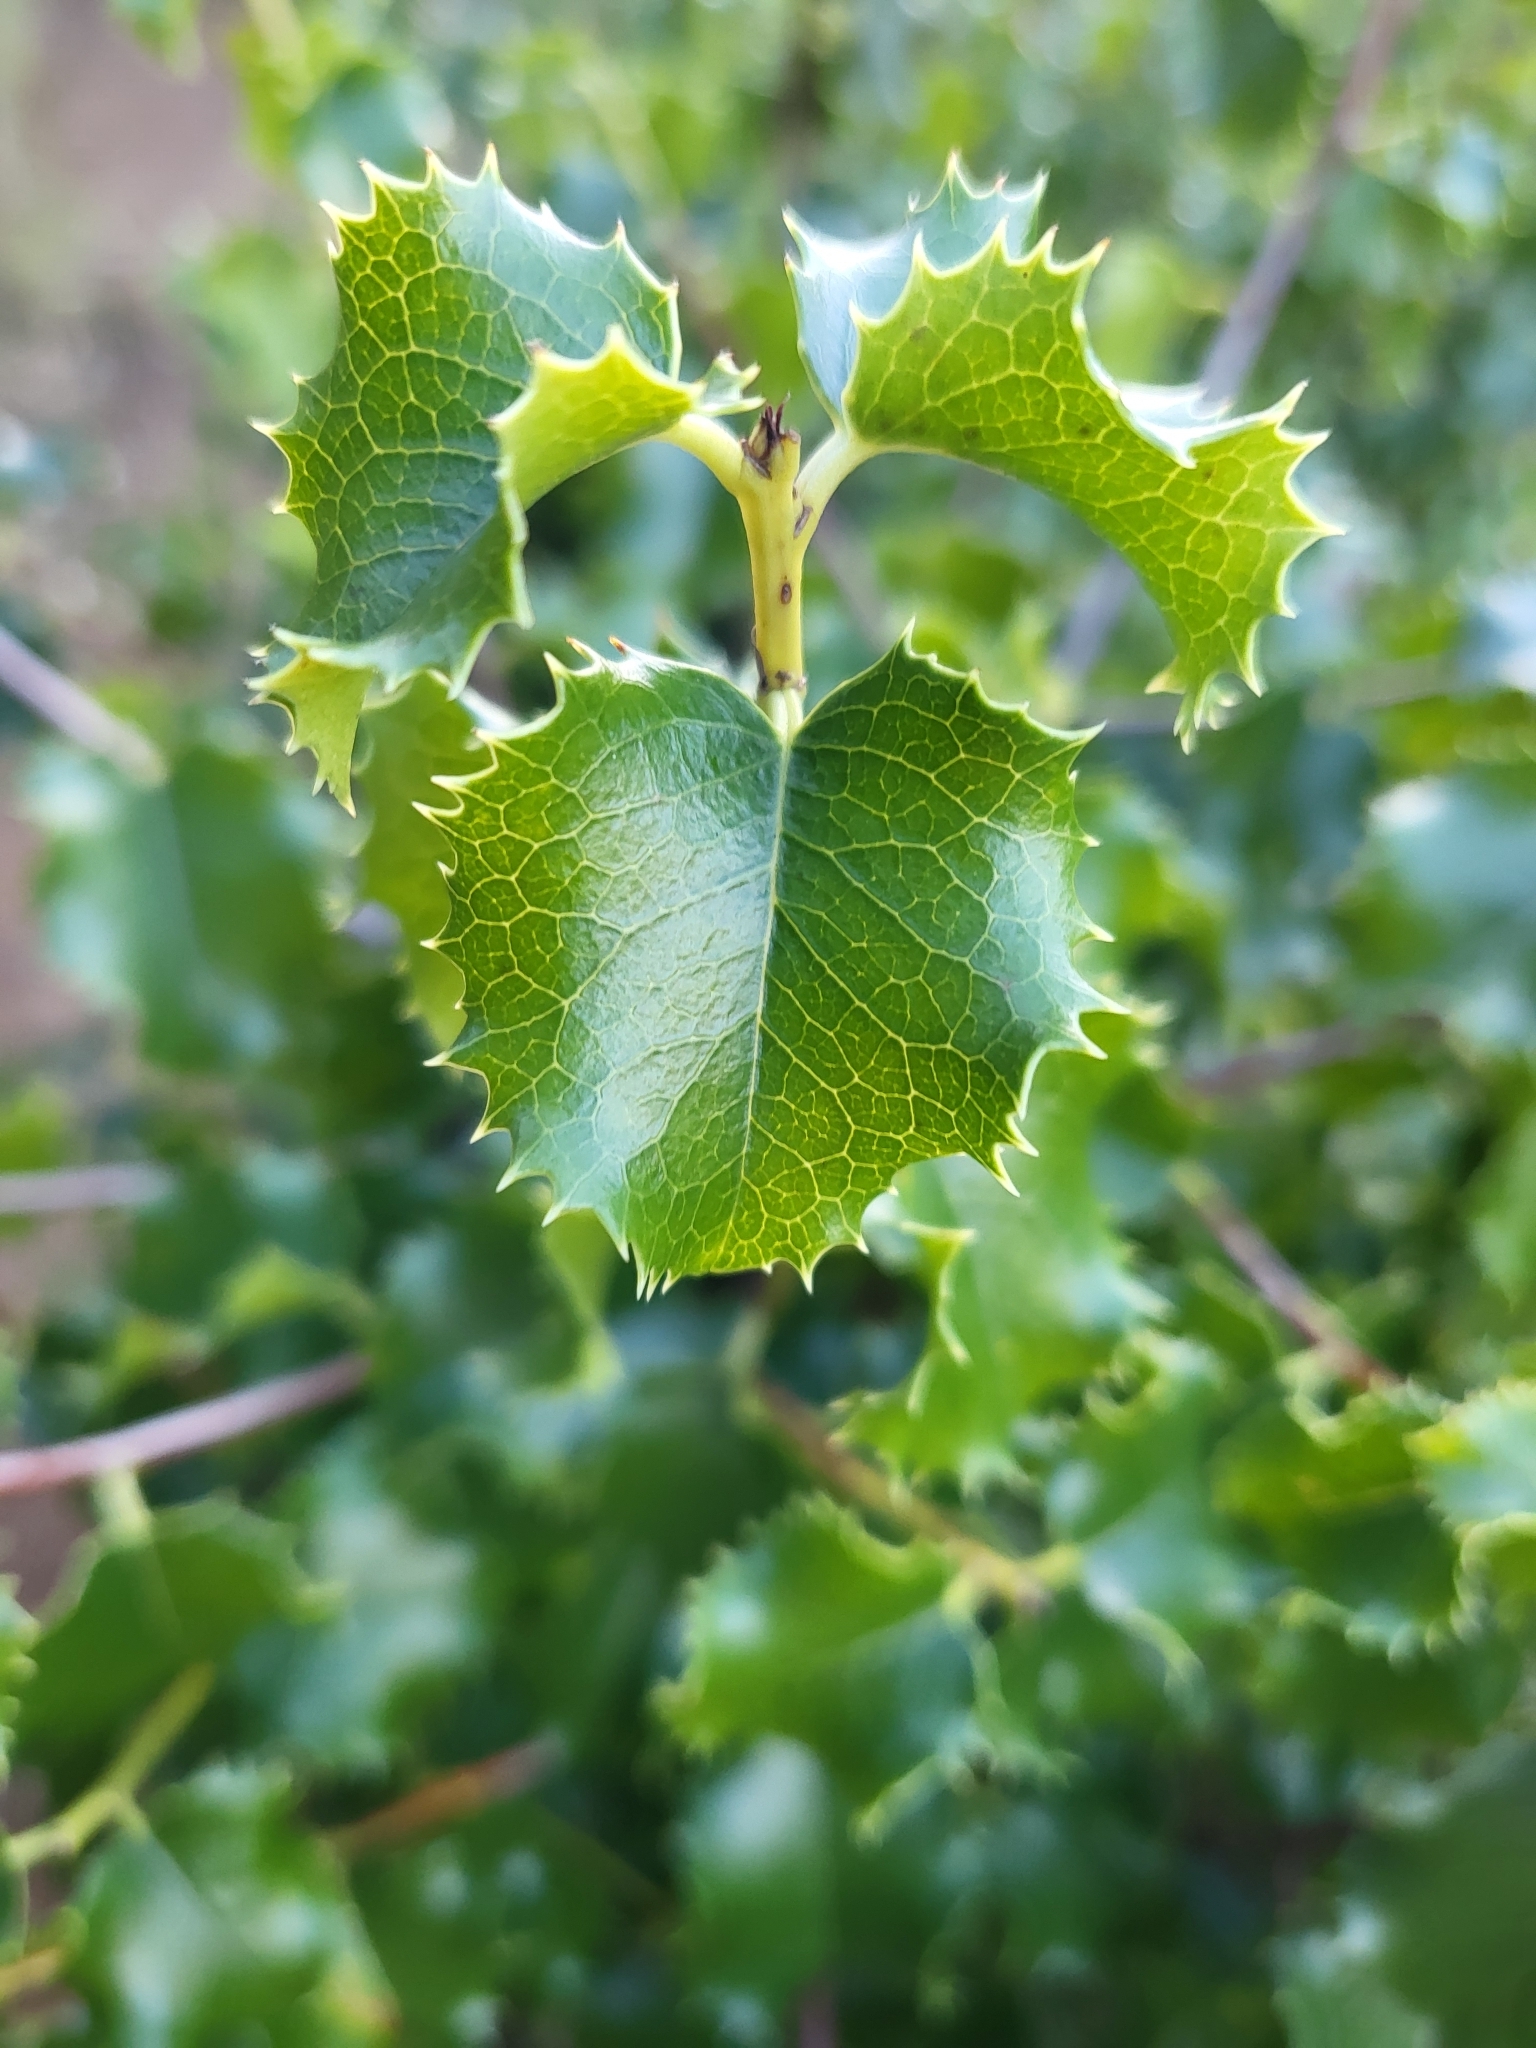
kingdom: Plantae
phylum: Tracheophyta
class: Magnoliopsida
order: Rosales
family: Rosaceae
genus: Prunus
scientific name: Prunus ilicifolia
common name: Hollyleaf cherry
